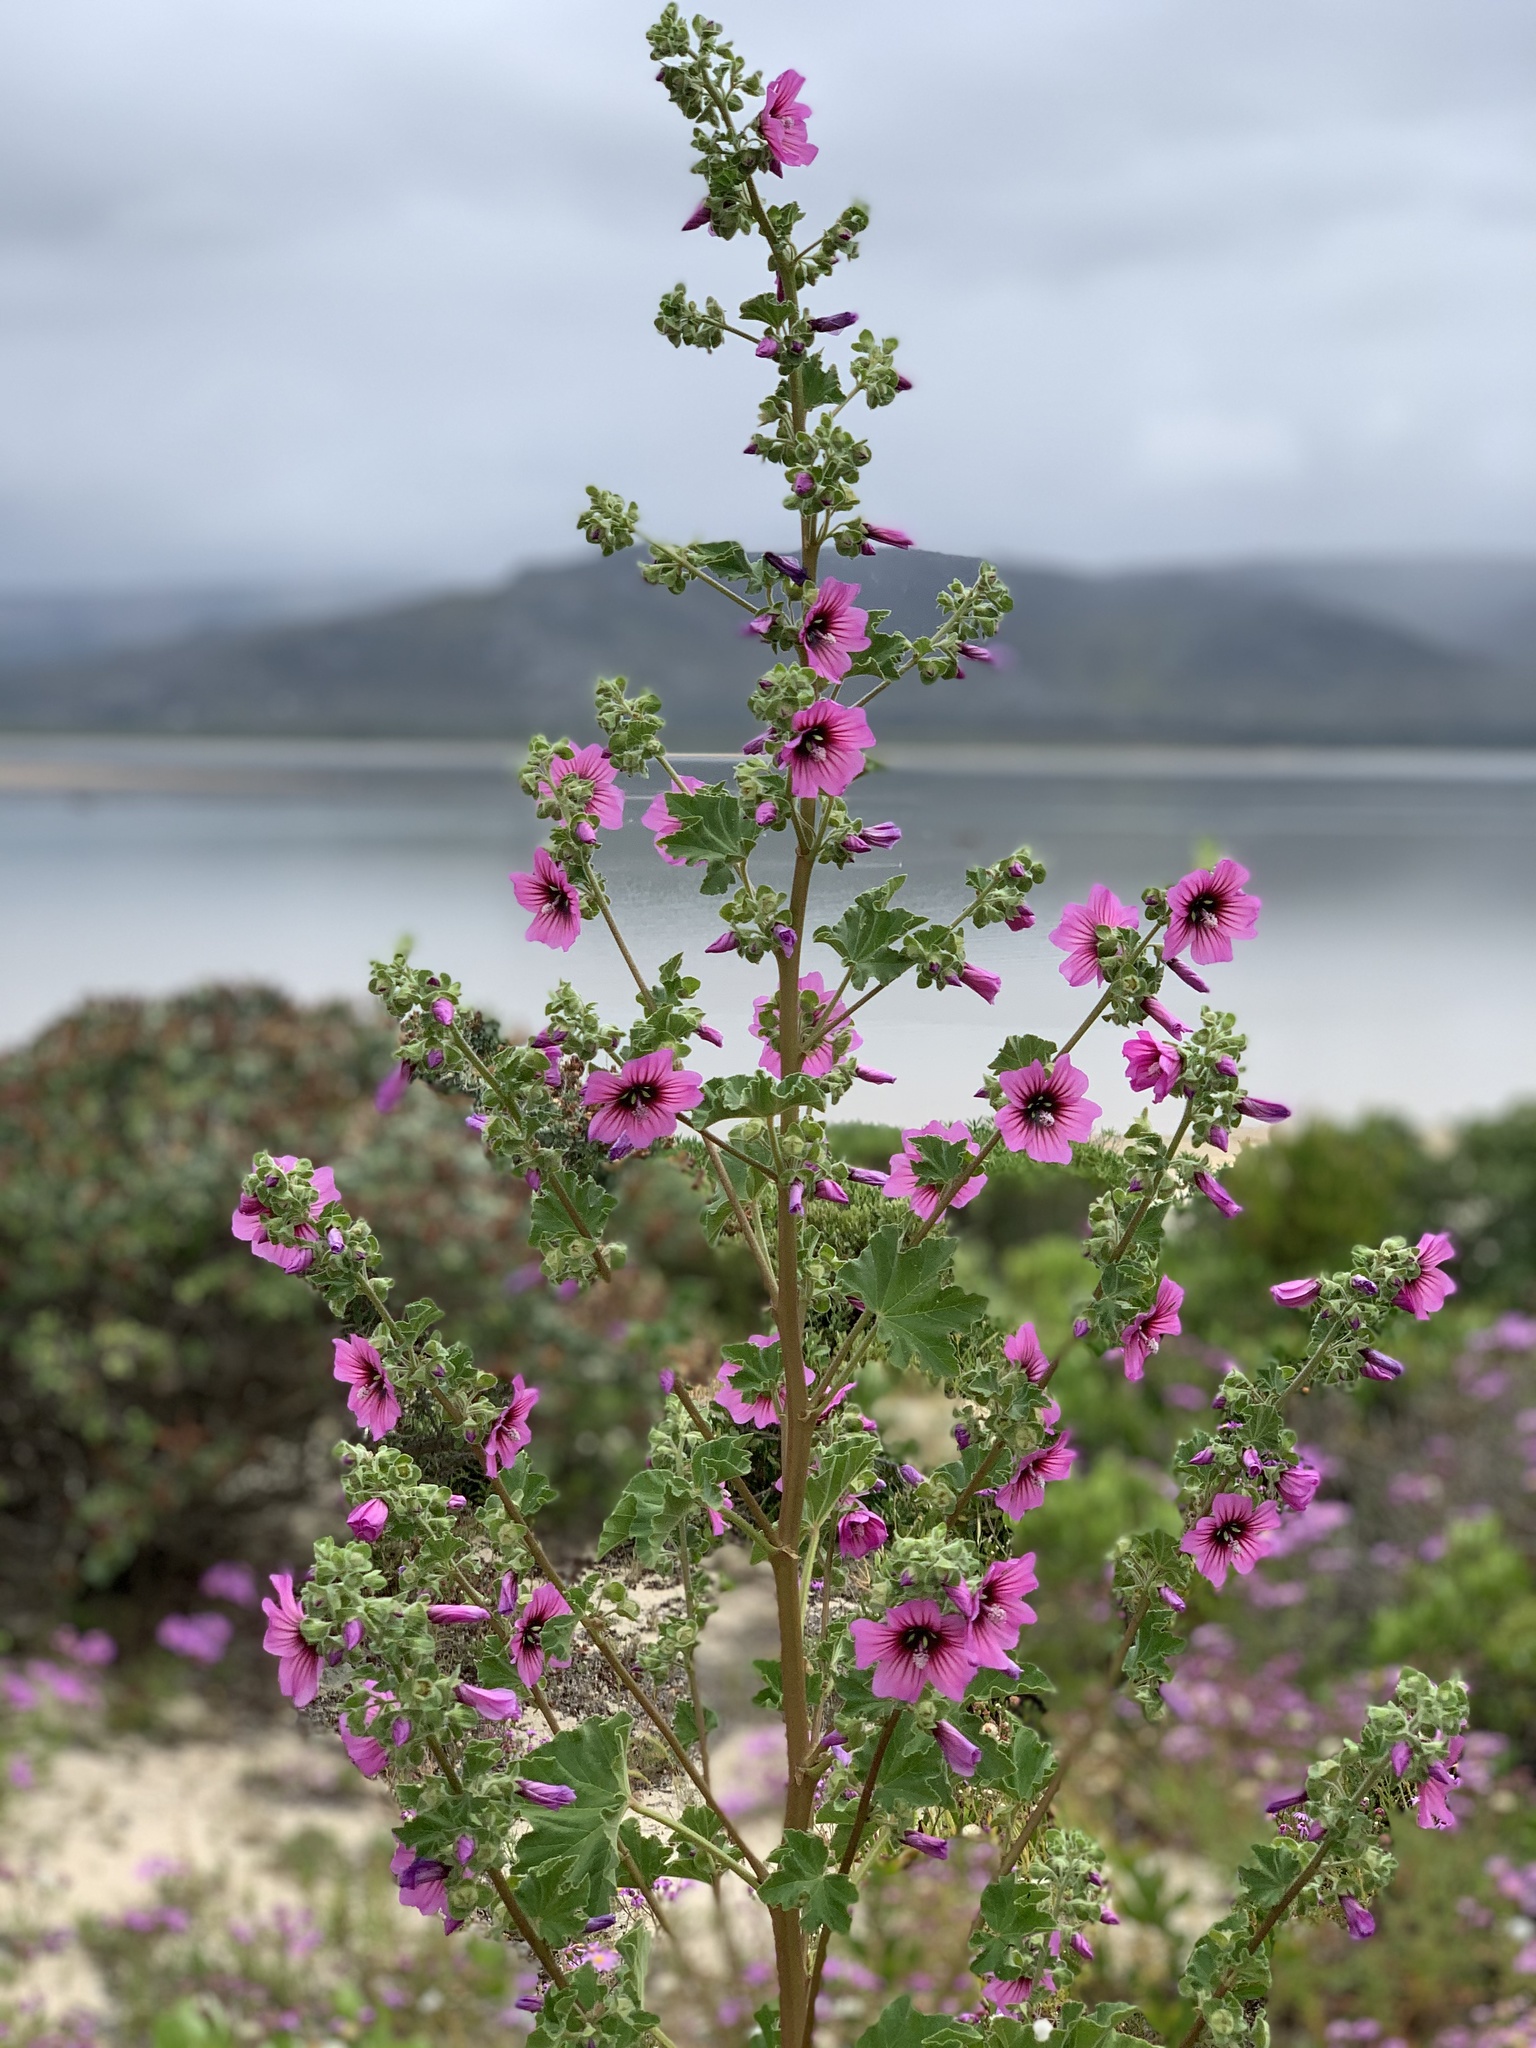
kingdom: Plantae
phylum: Tracheophyta
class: Magnoliopsida
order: Malvales
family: Malvaceae
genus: Malva
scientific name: Malva arborea
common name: Tree mallow
